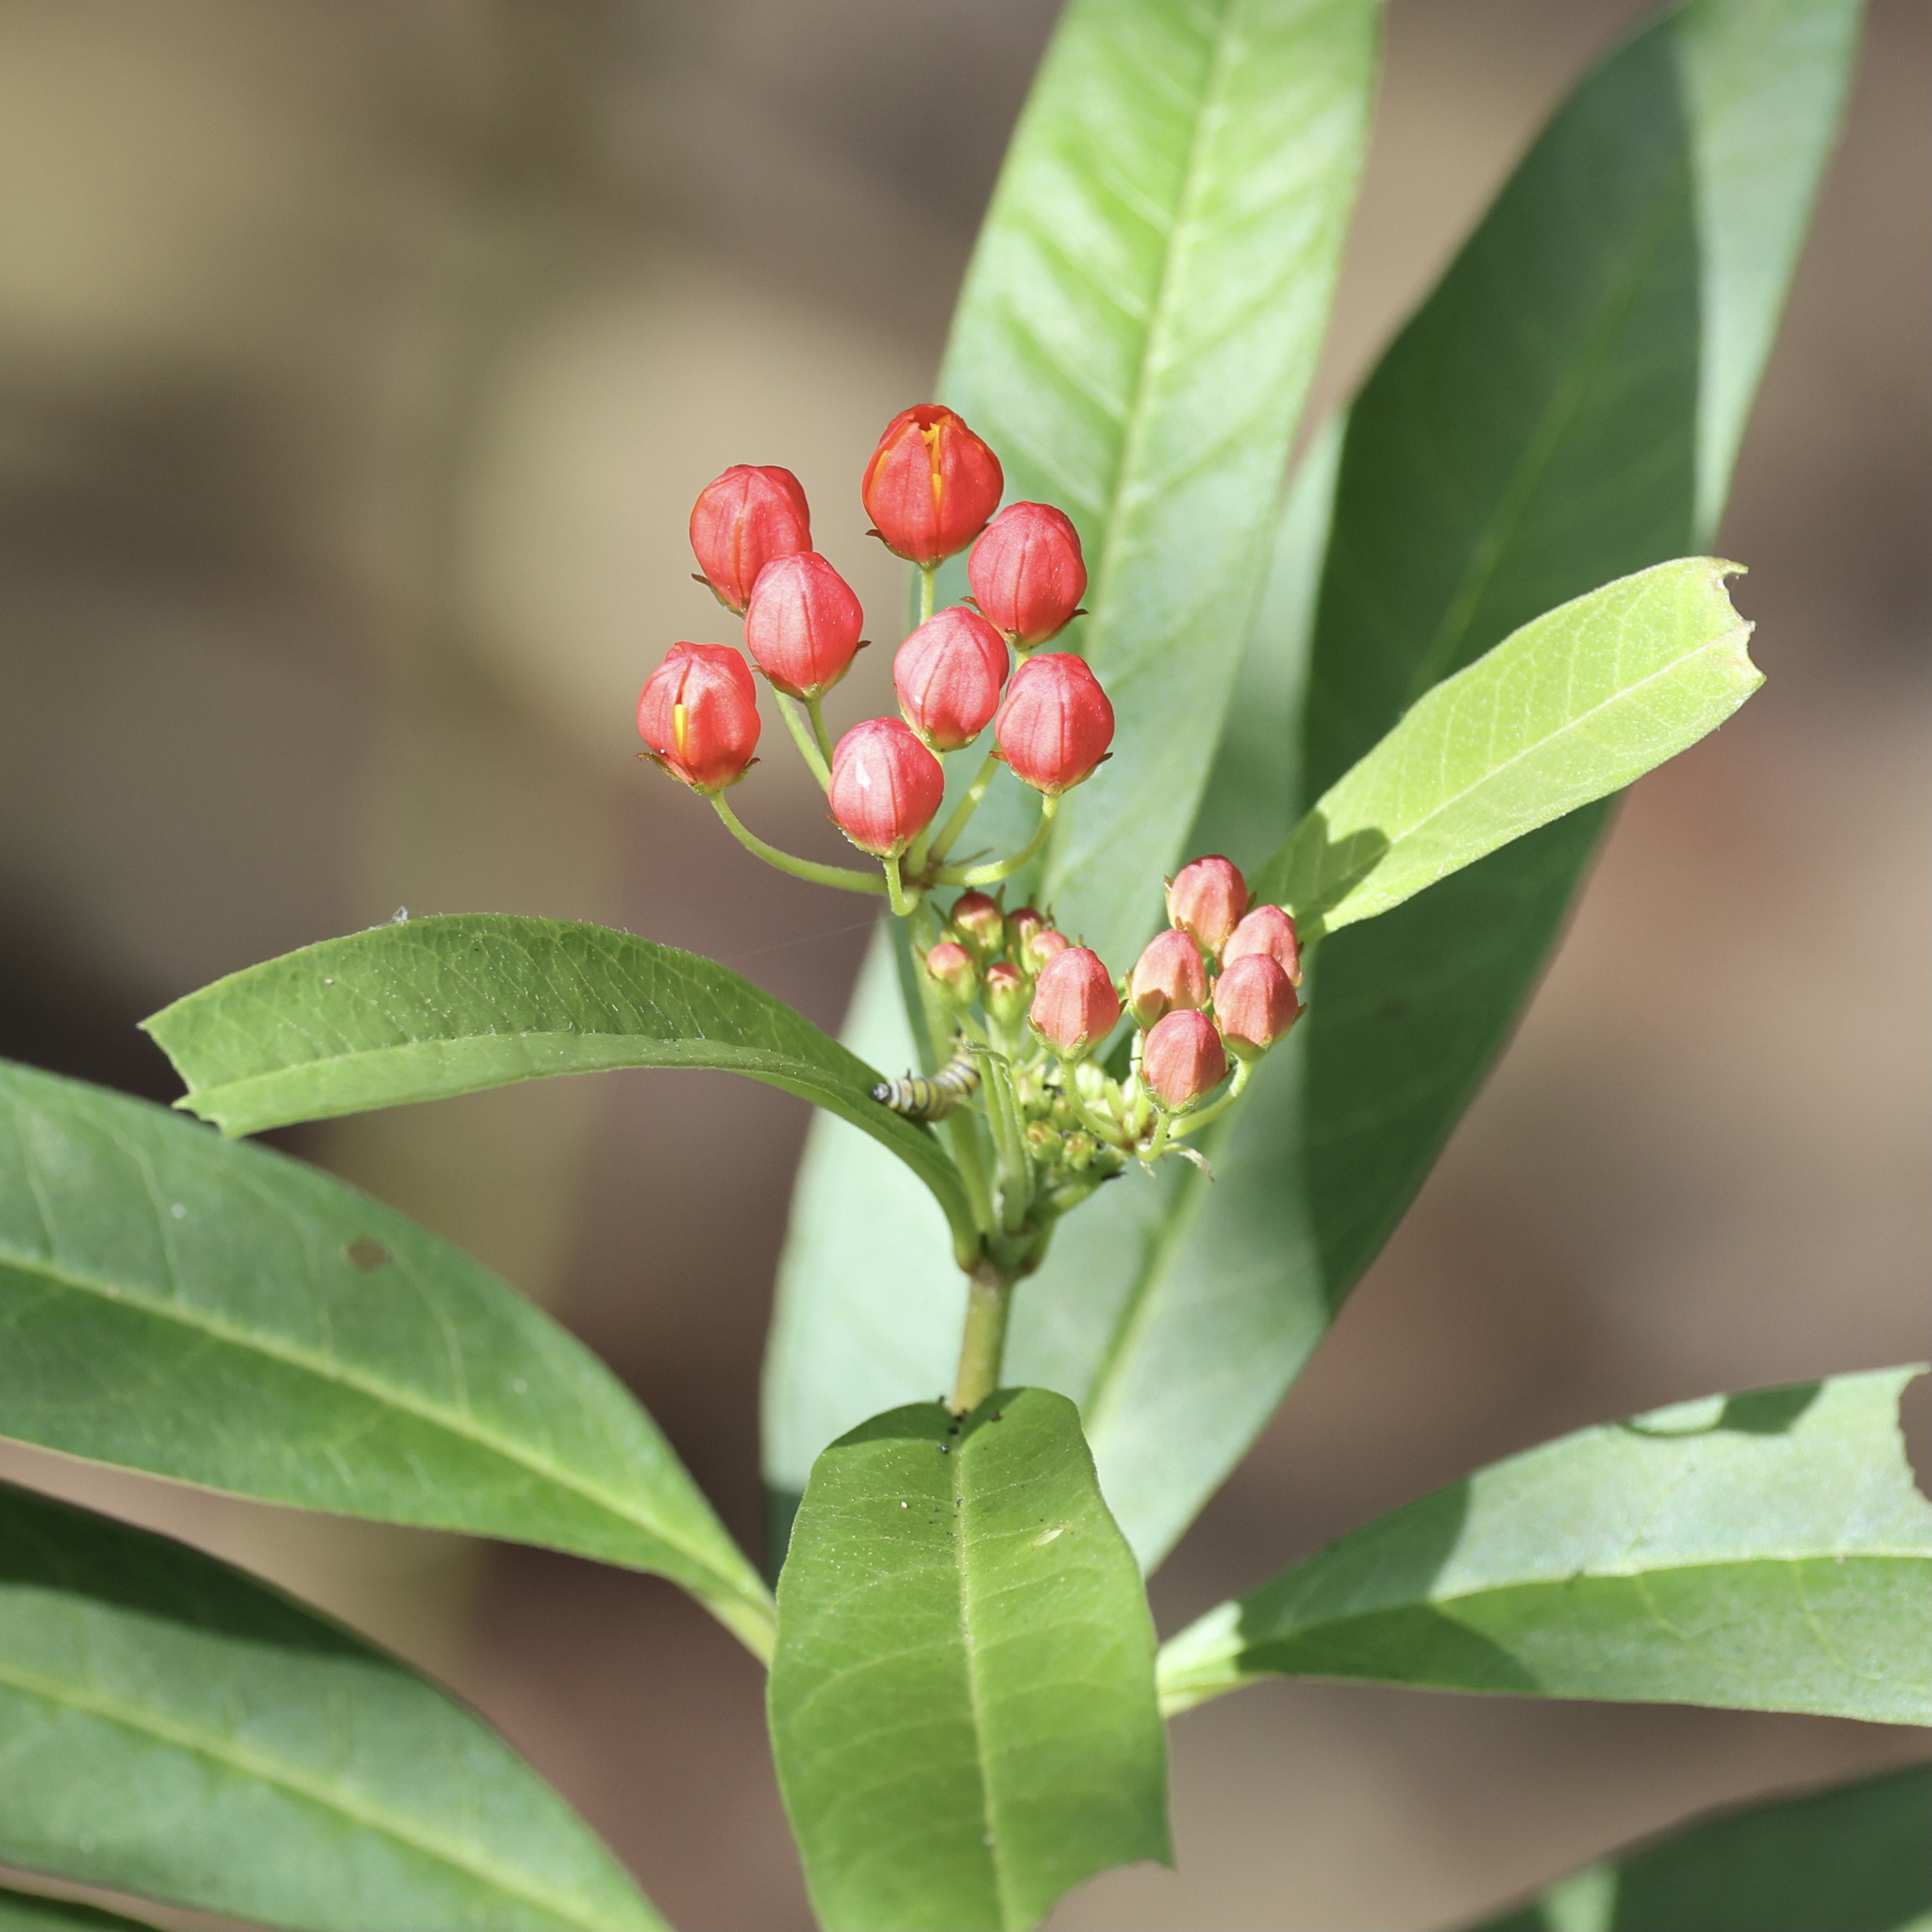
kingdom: Plantae
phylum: Tracheophyta
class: Magnoliopsida
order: Gentianales
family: Apocynaceae
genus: Asclepias
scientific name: Asclepias curassavica
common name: Bloodflower
